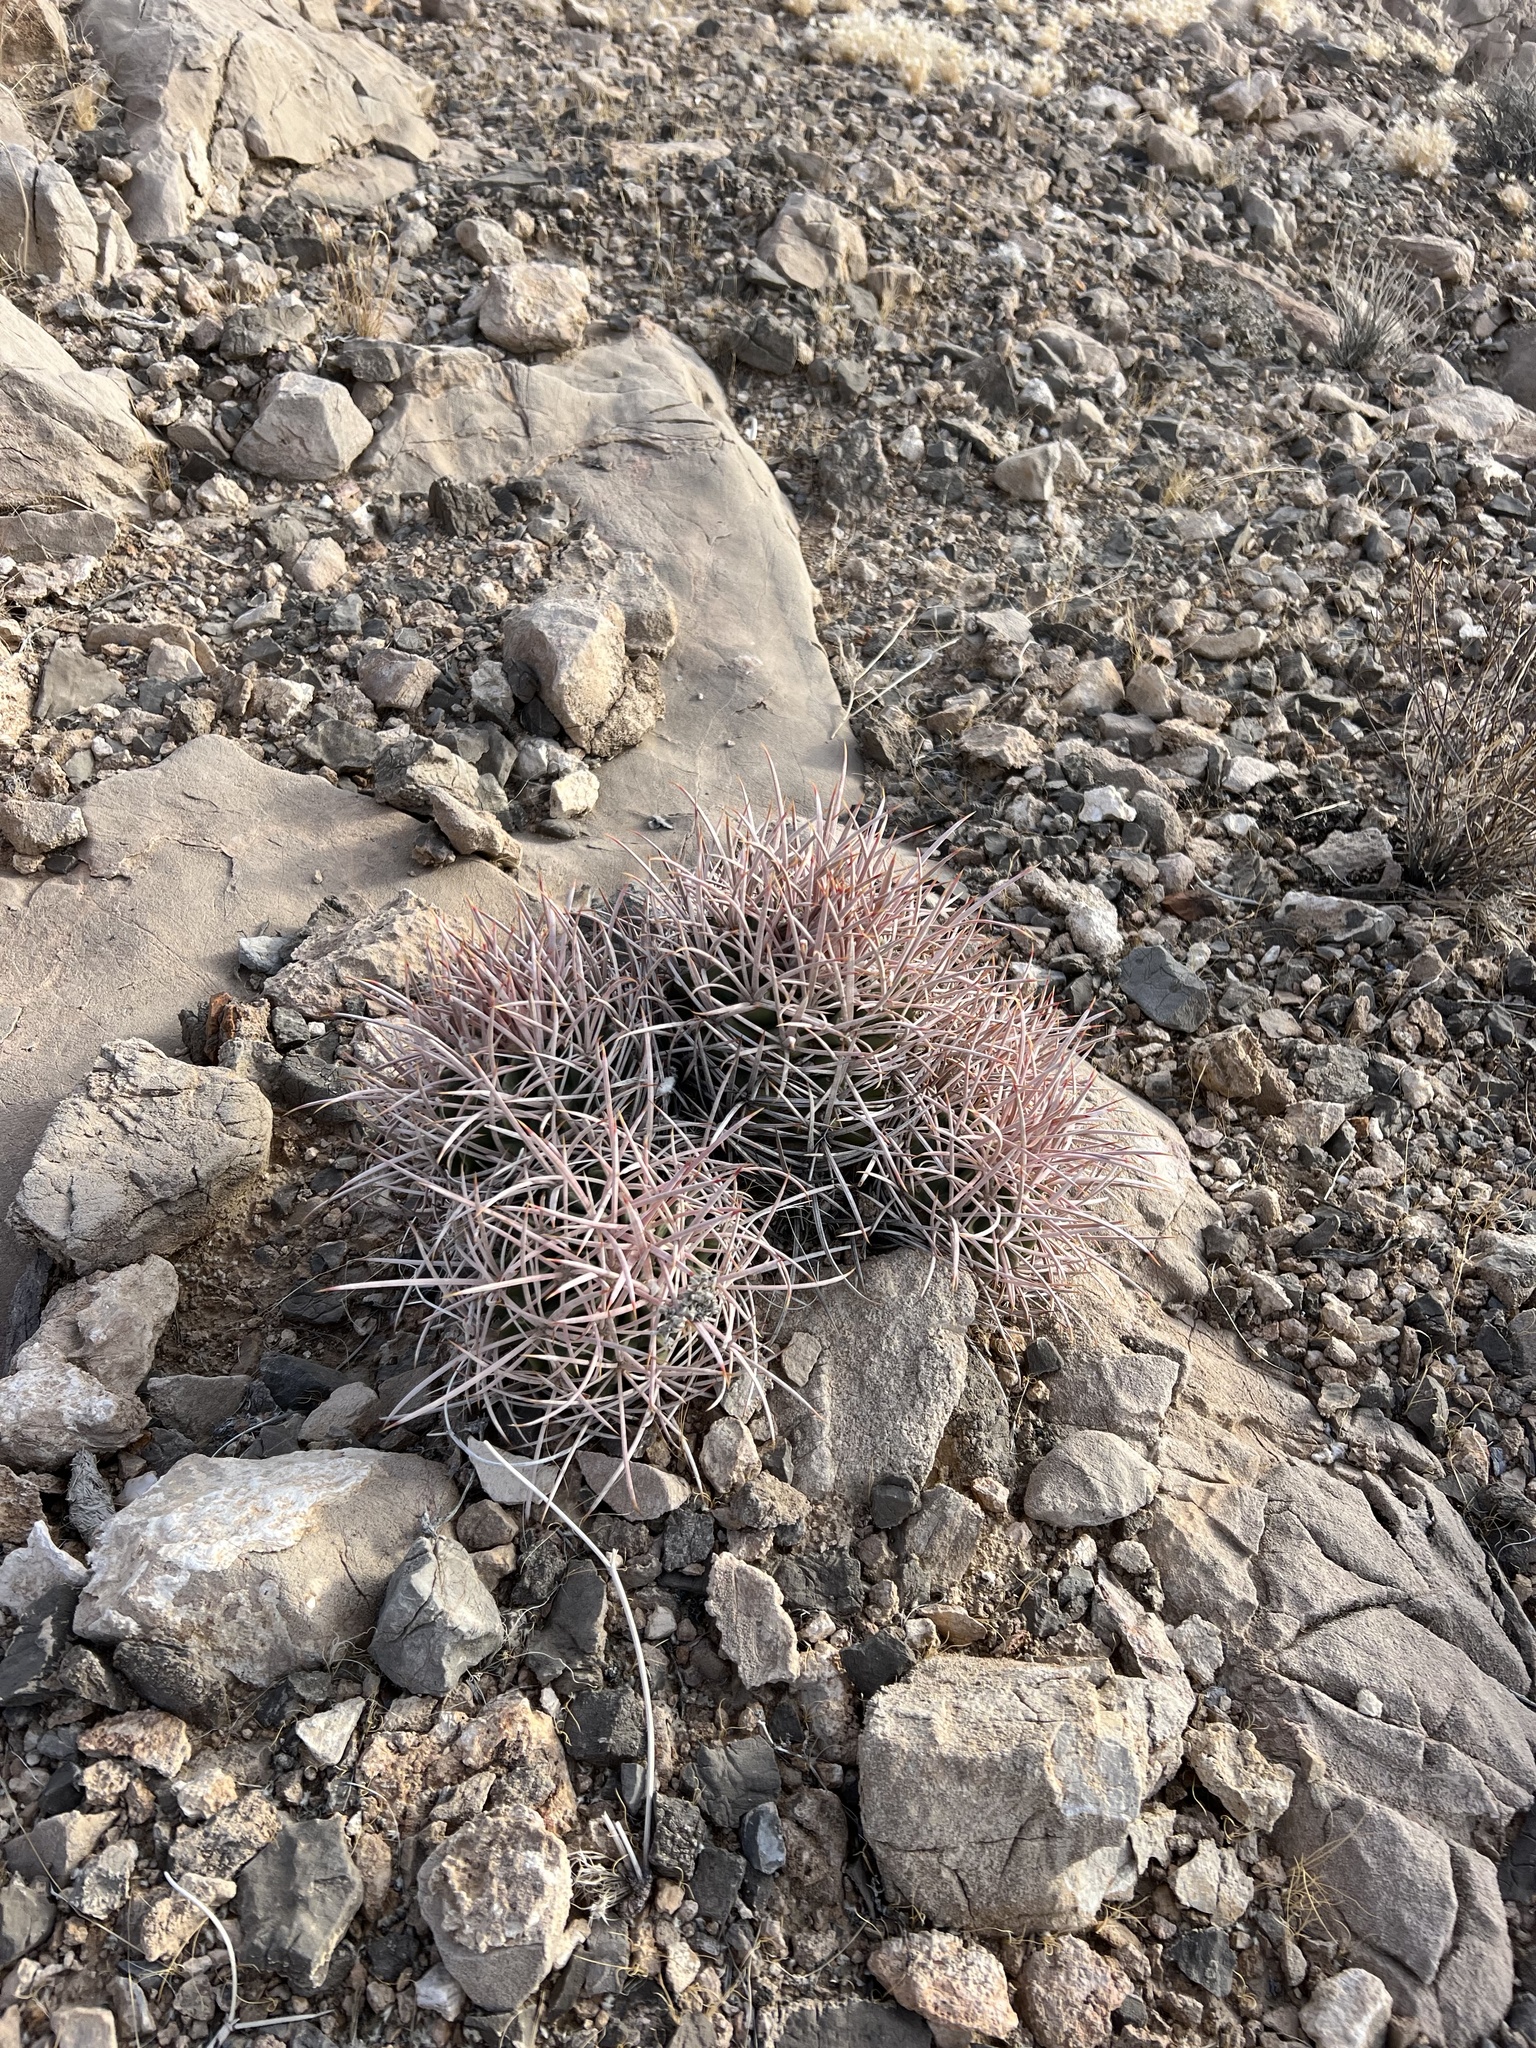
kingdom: Plantae
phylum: Tracheophyta
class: Magnoliopsida
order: Caryophyllales
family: Cactaceae
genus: Echinocactus
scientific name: Echinocactus polycephalus
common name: Cottontop cactus
